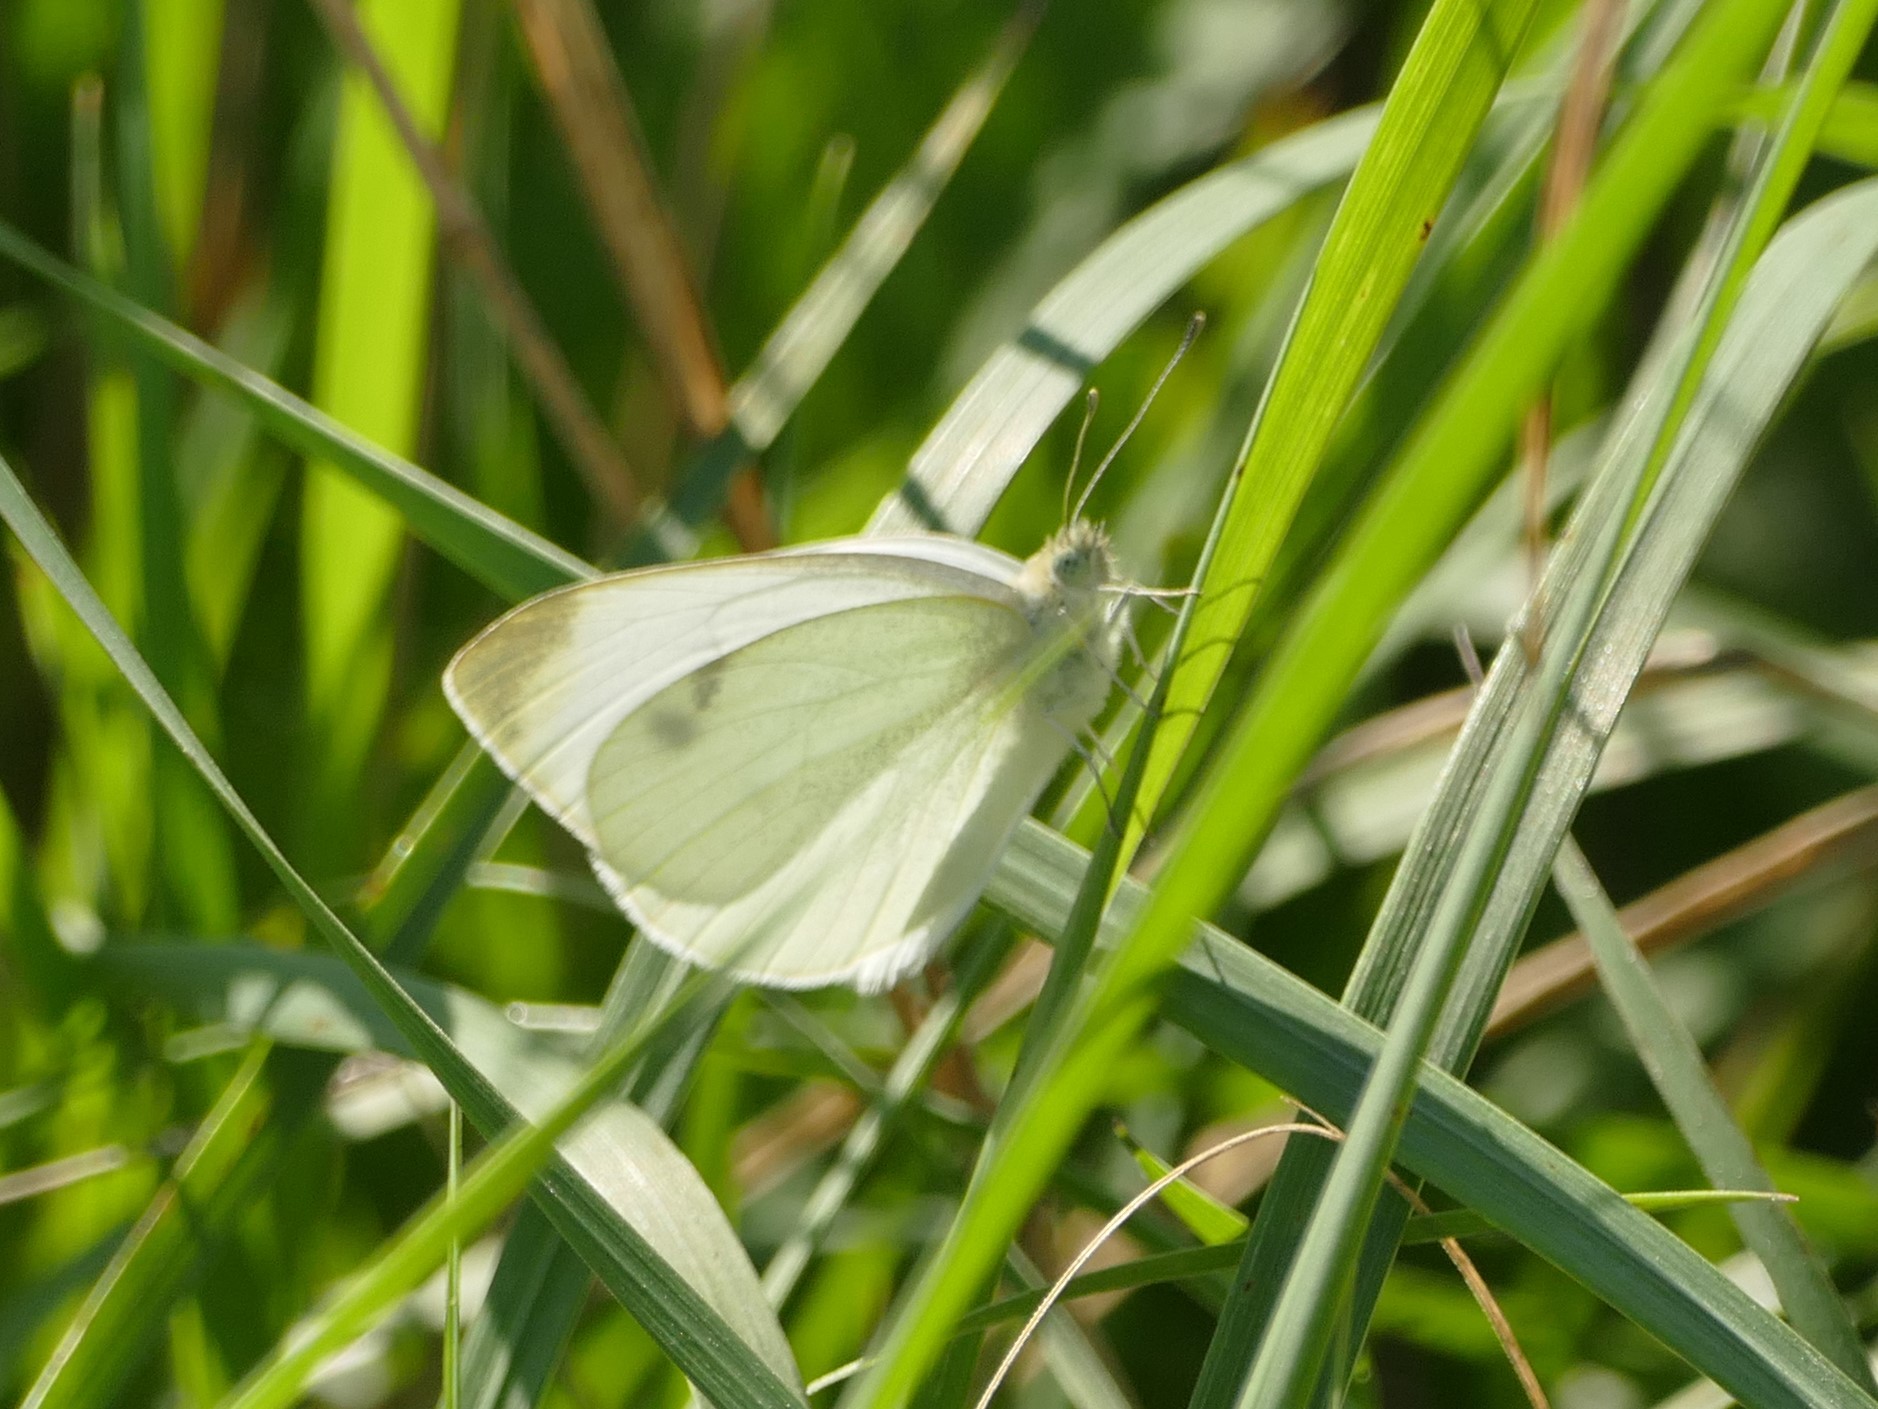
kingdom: Animalia
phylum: Arthropoda
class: Insecta
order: Lepidoptera
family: Pieridae
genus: Pieris
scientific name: Pieris rapae
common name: Small white
